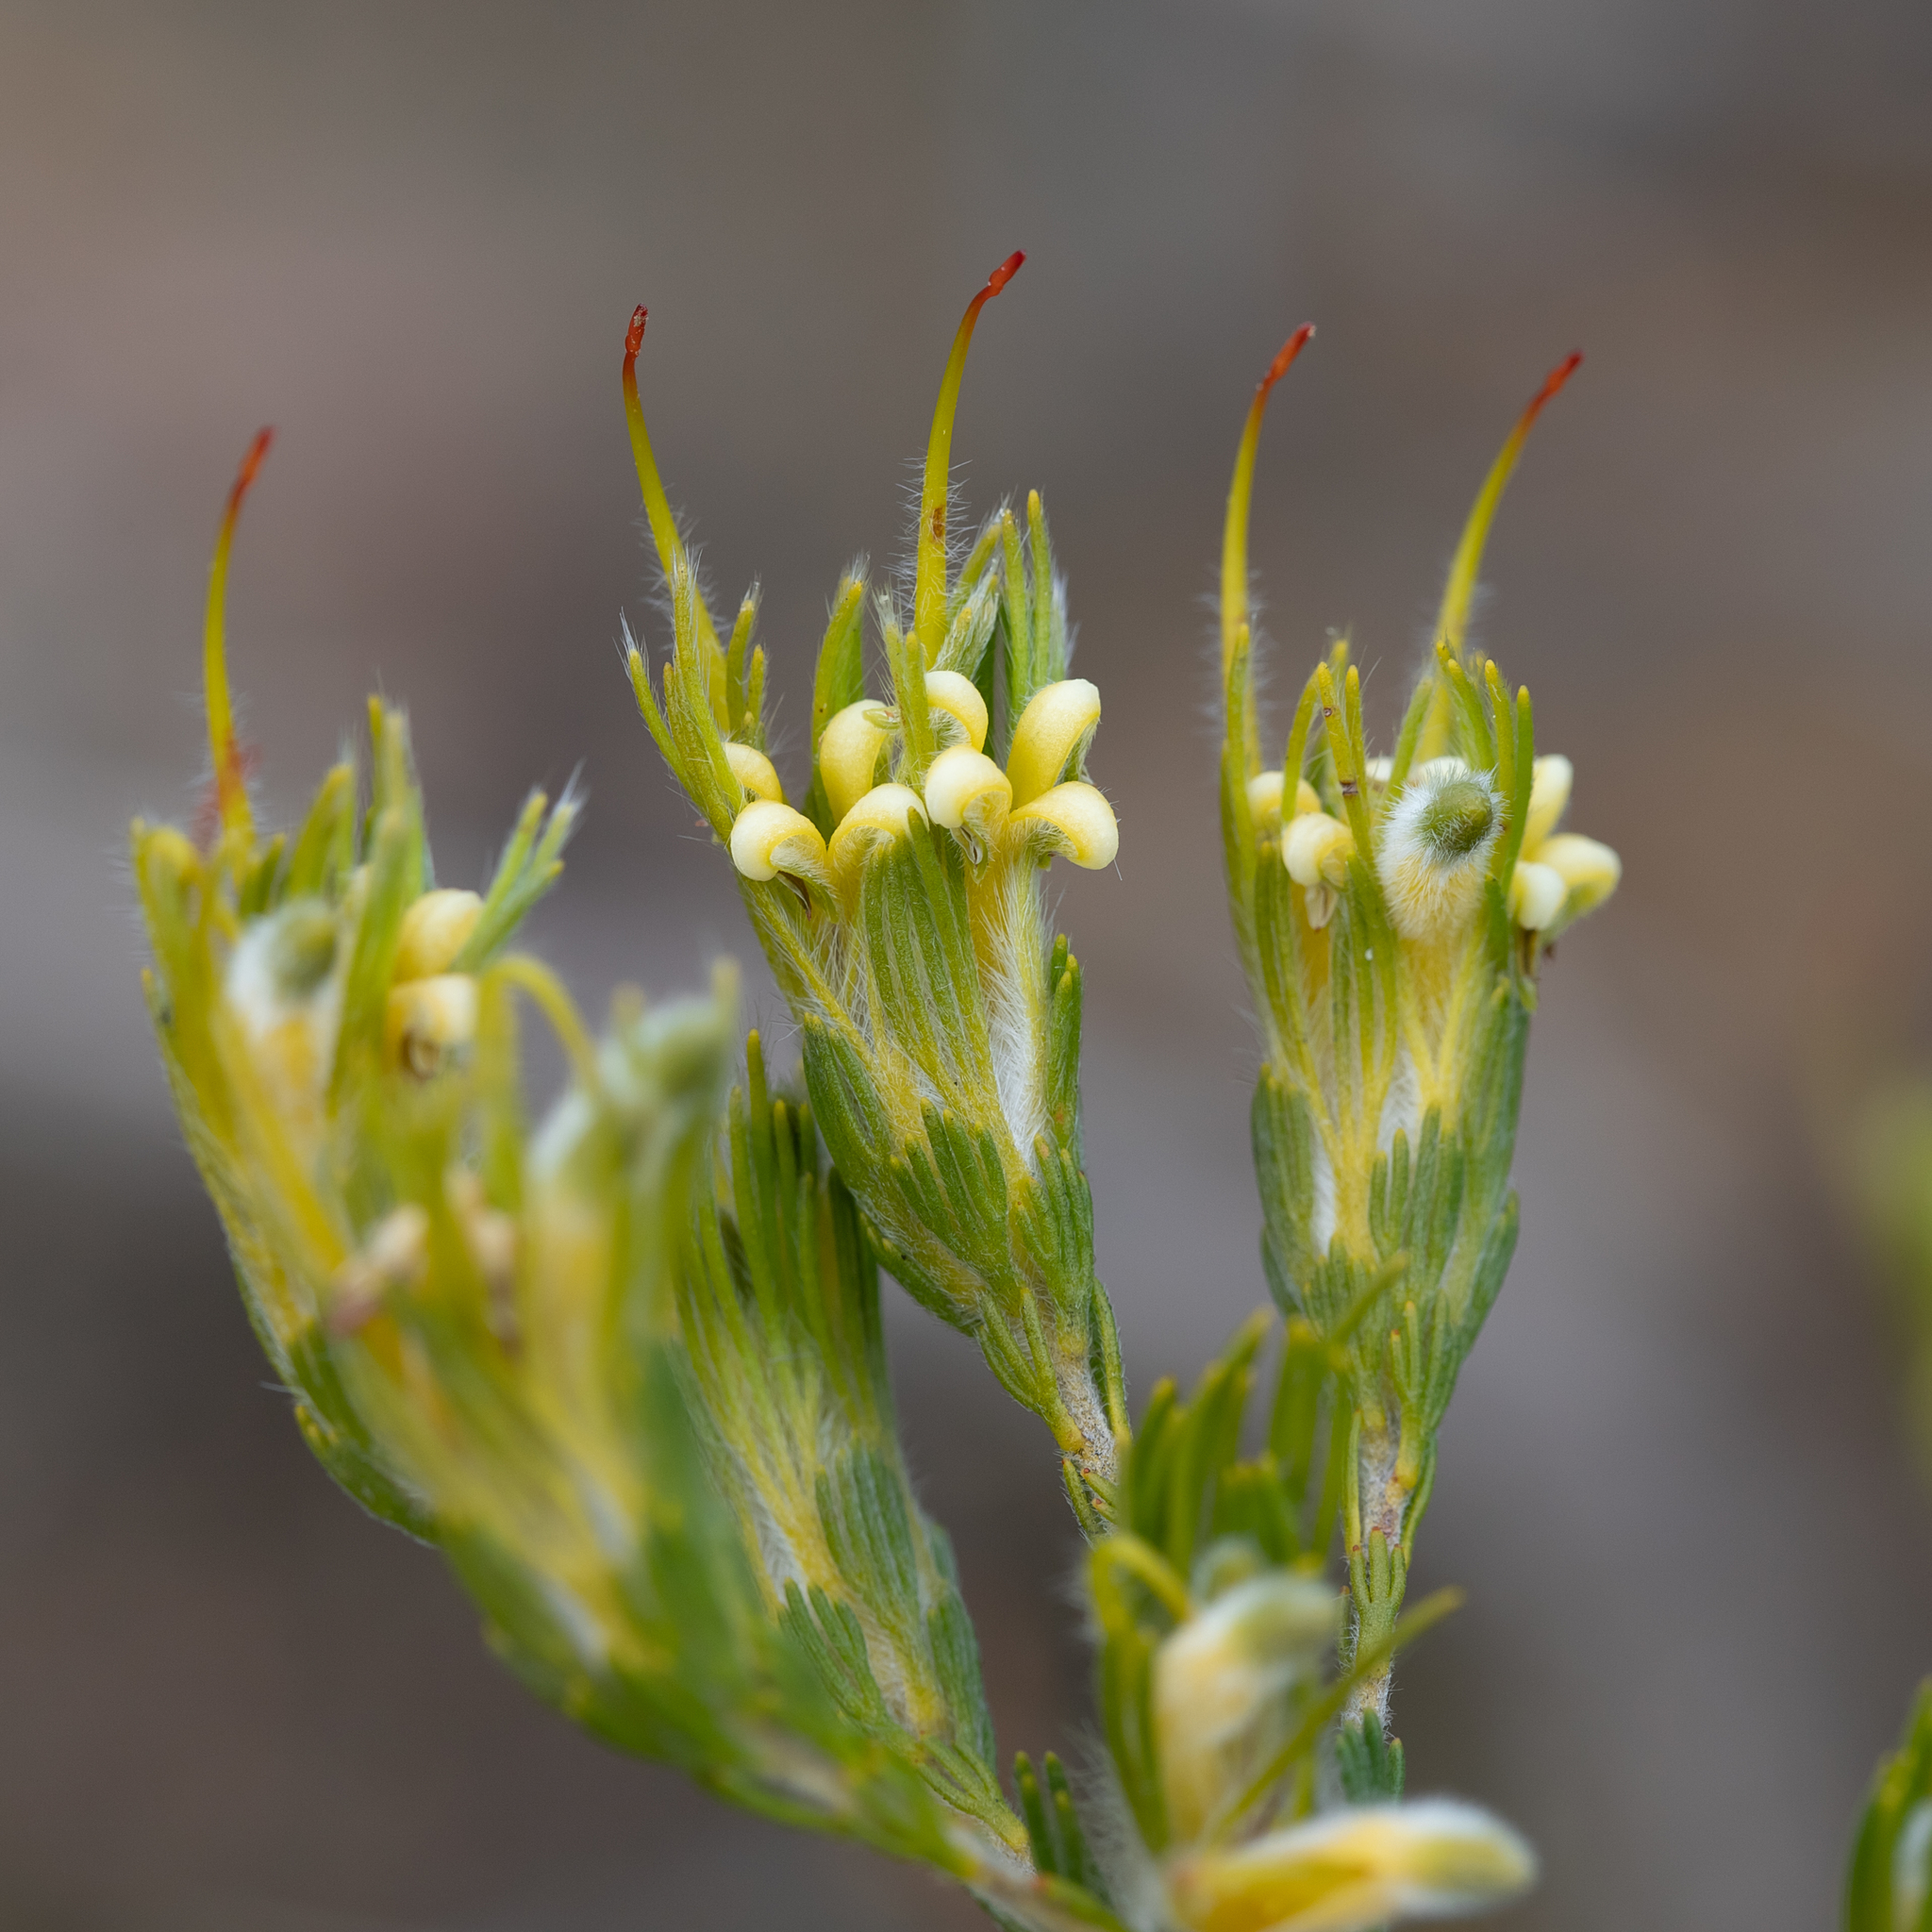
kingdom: Plantae
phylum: Tracheophyta
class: Magnoliopsida
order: Proteales
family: Proteaceae
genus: Adenanthos
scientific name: Adenanthos terminalis
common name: Yellow gland-flower
